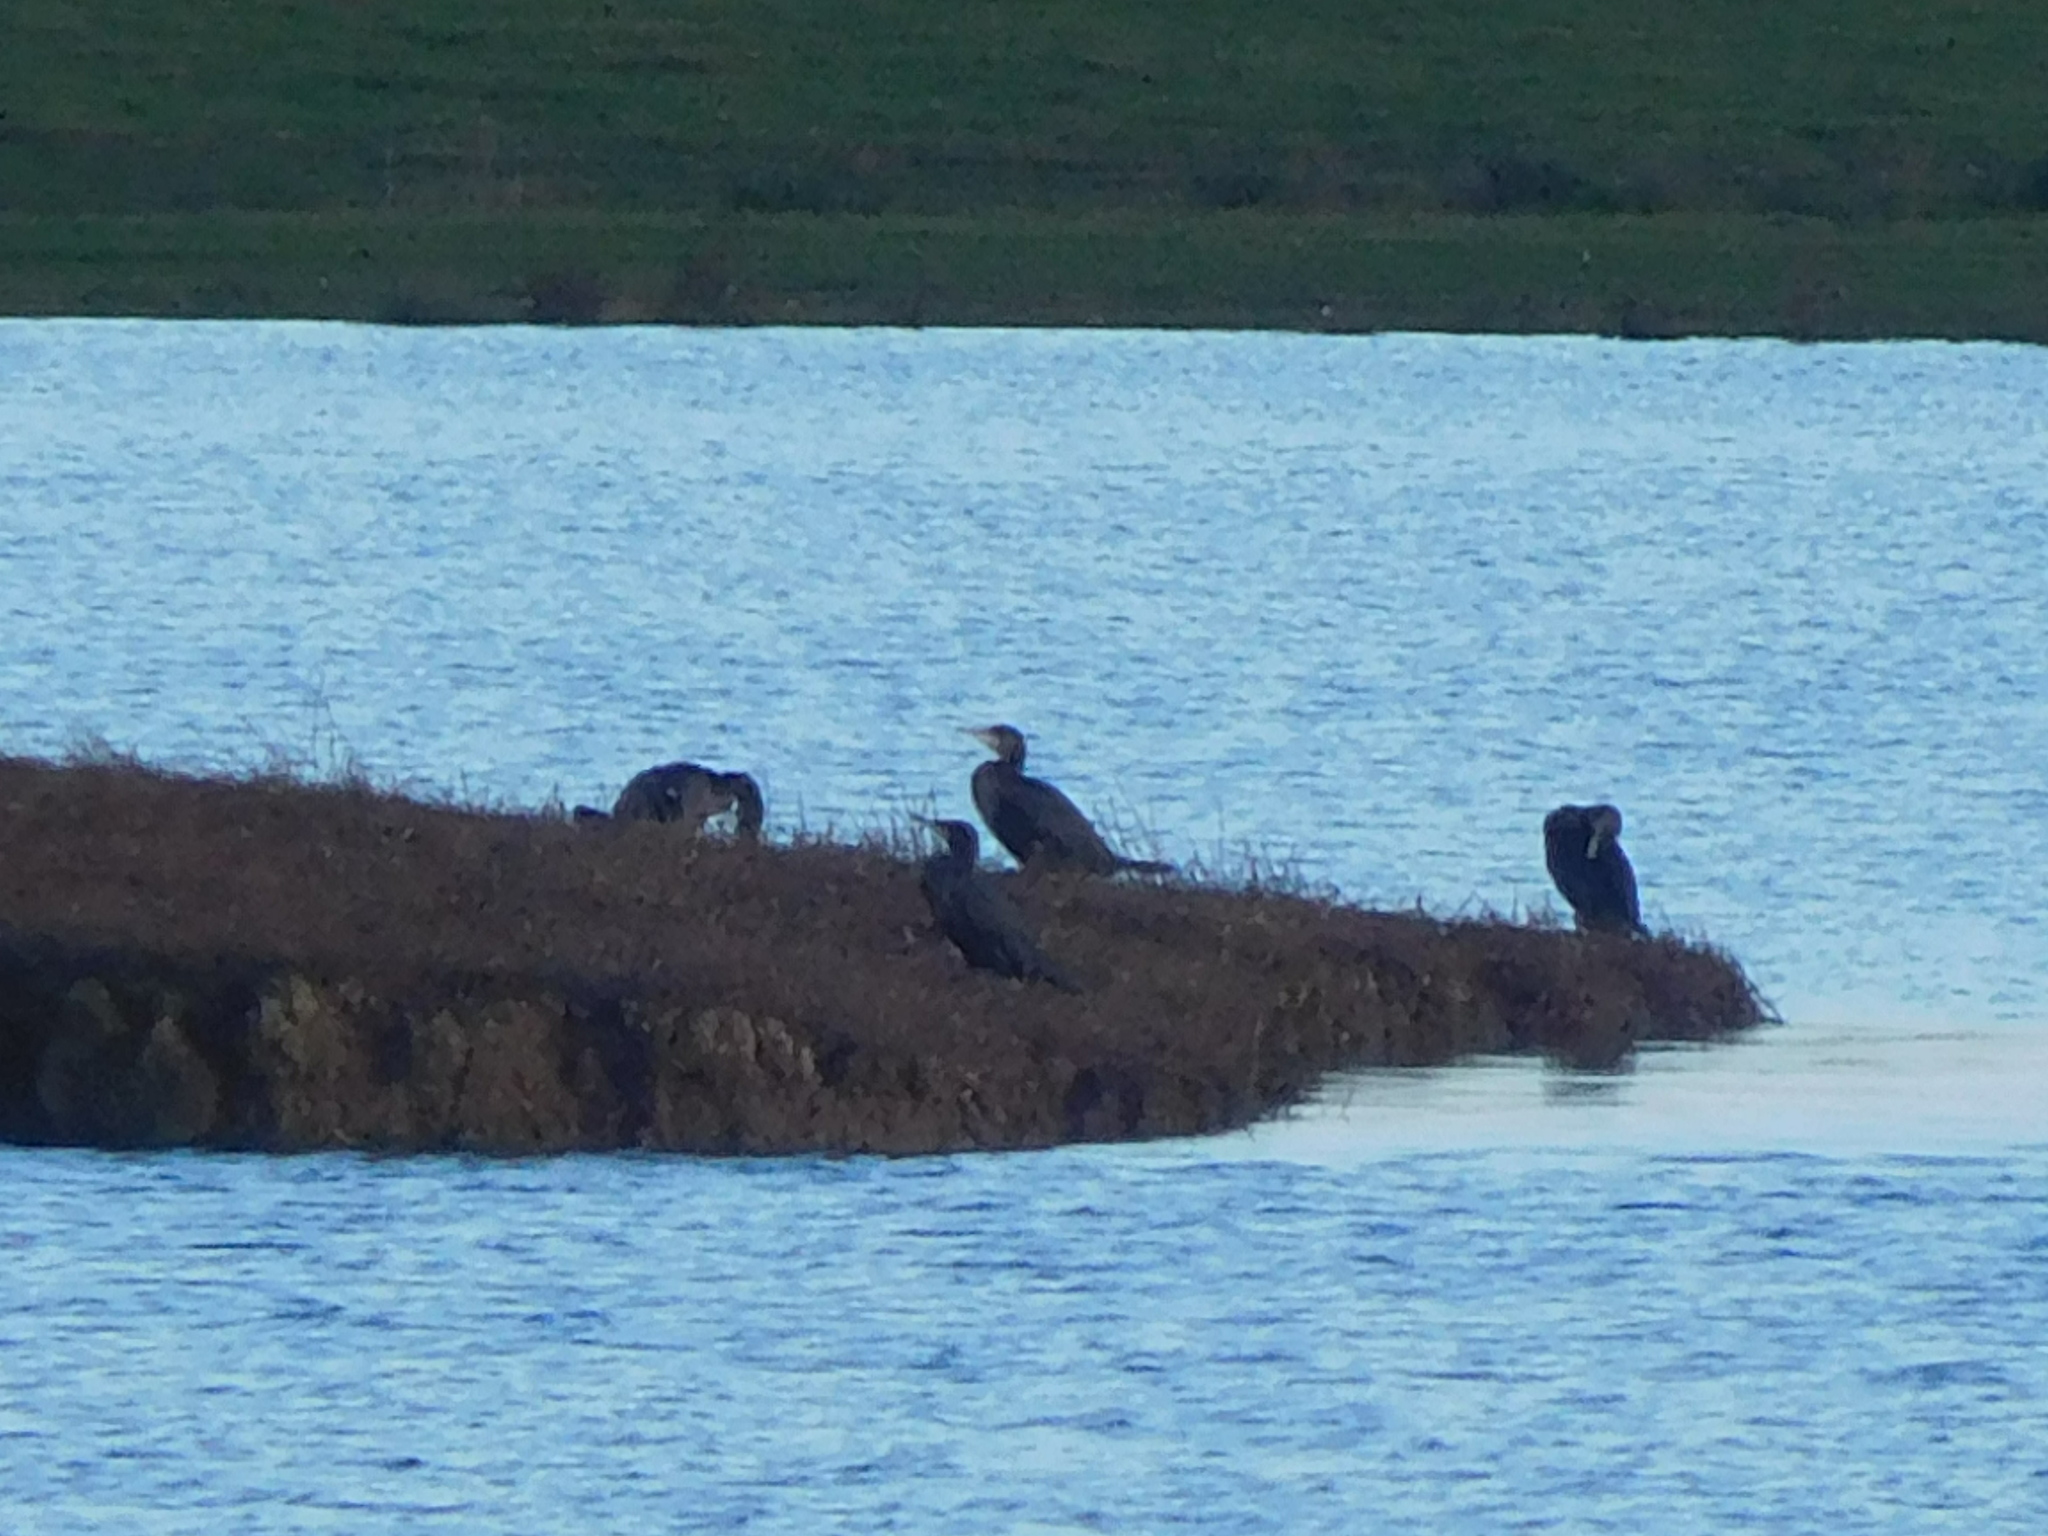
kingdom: Animalia
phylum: Chordata
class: Aves
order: Suliformes
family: Phalacrocoracidae
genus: Phalacrocorax
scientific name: Phalacrocorax carbo
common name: Great cormorant
